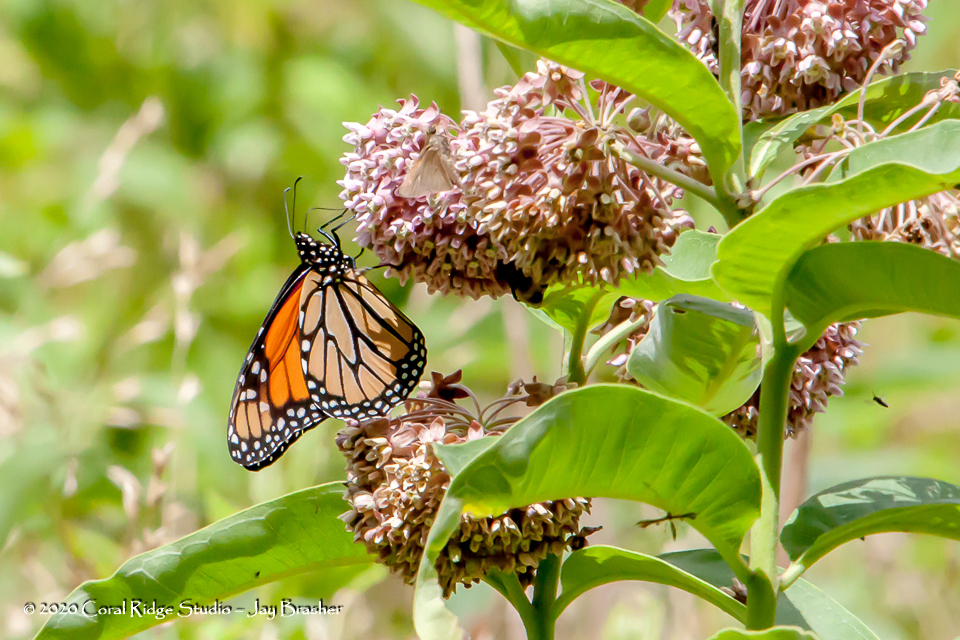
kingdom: Animalia
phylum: Arthropoda
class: Insecta
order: Lepidoptera
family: Nymphalidae
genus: Danaus
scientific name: Danaus plexippus
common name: Monarch
